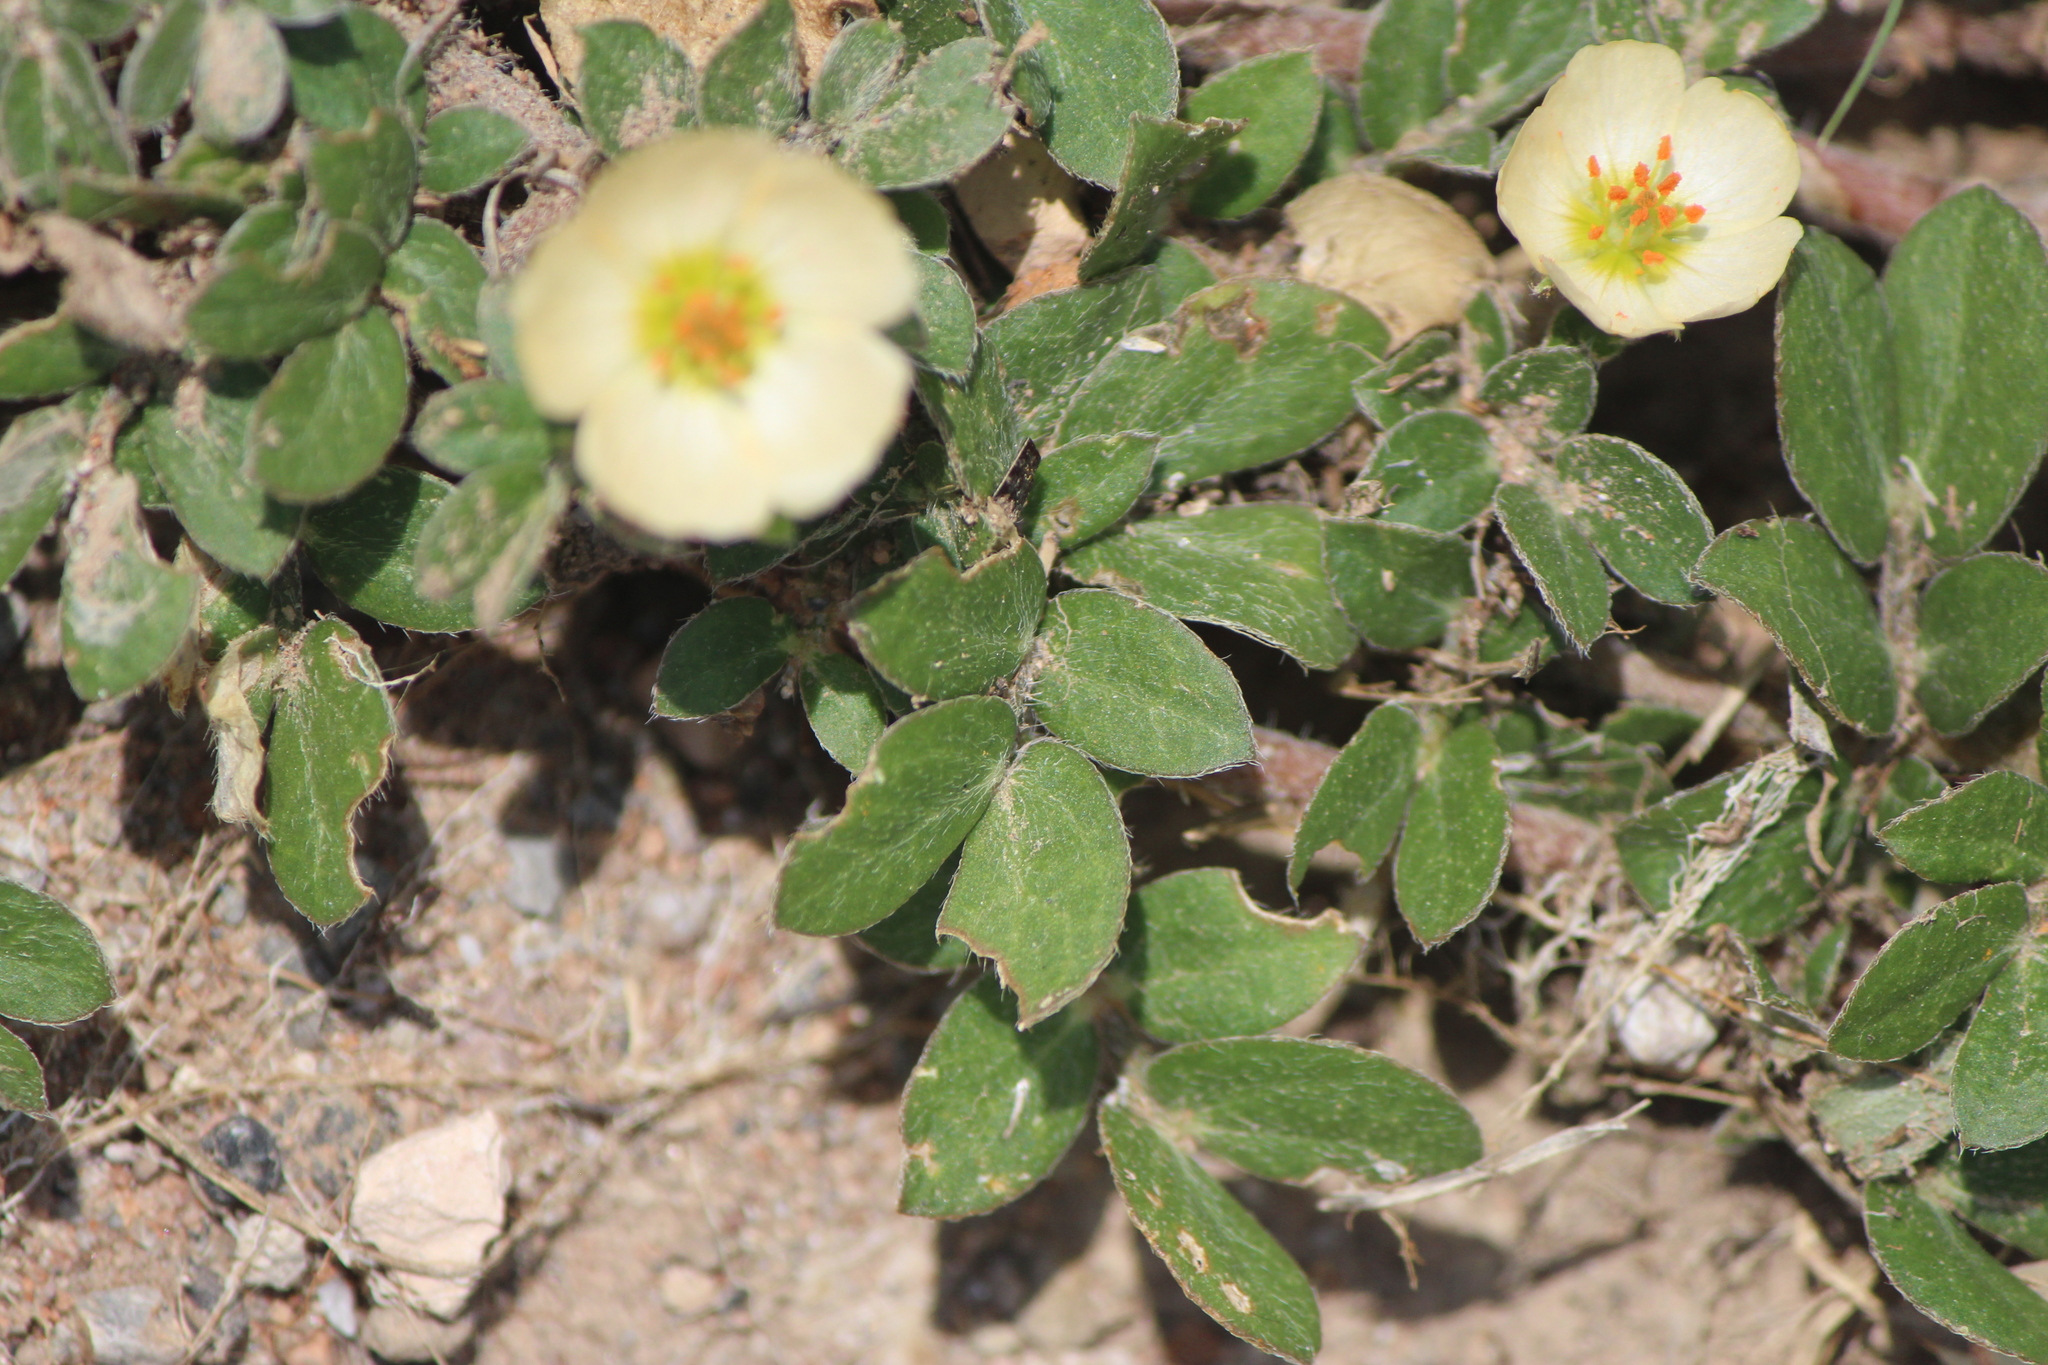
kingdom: Plantae
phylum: Tracheophyta
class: Magnoliopsida
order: Zygophyllales
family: Zygophyllaceae
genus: Kallstroemia
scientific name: Kallstroemia rosei
